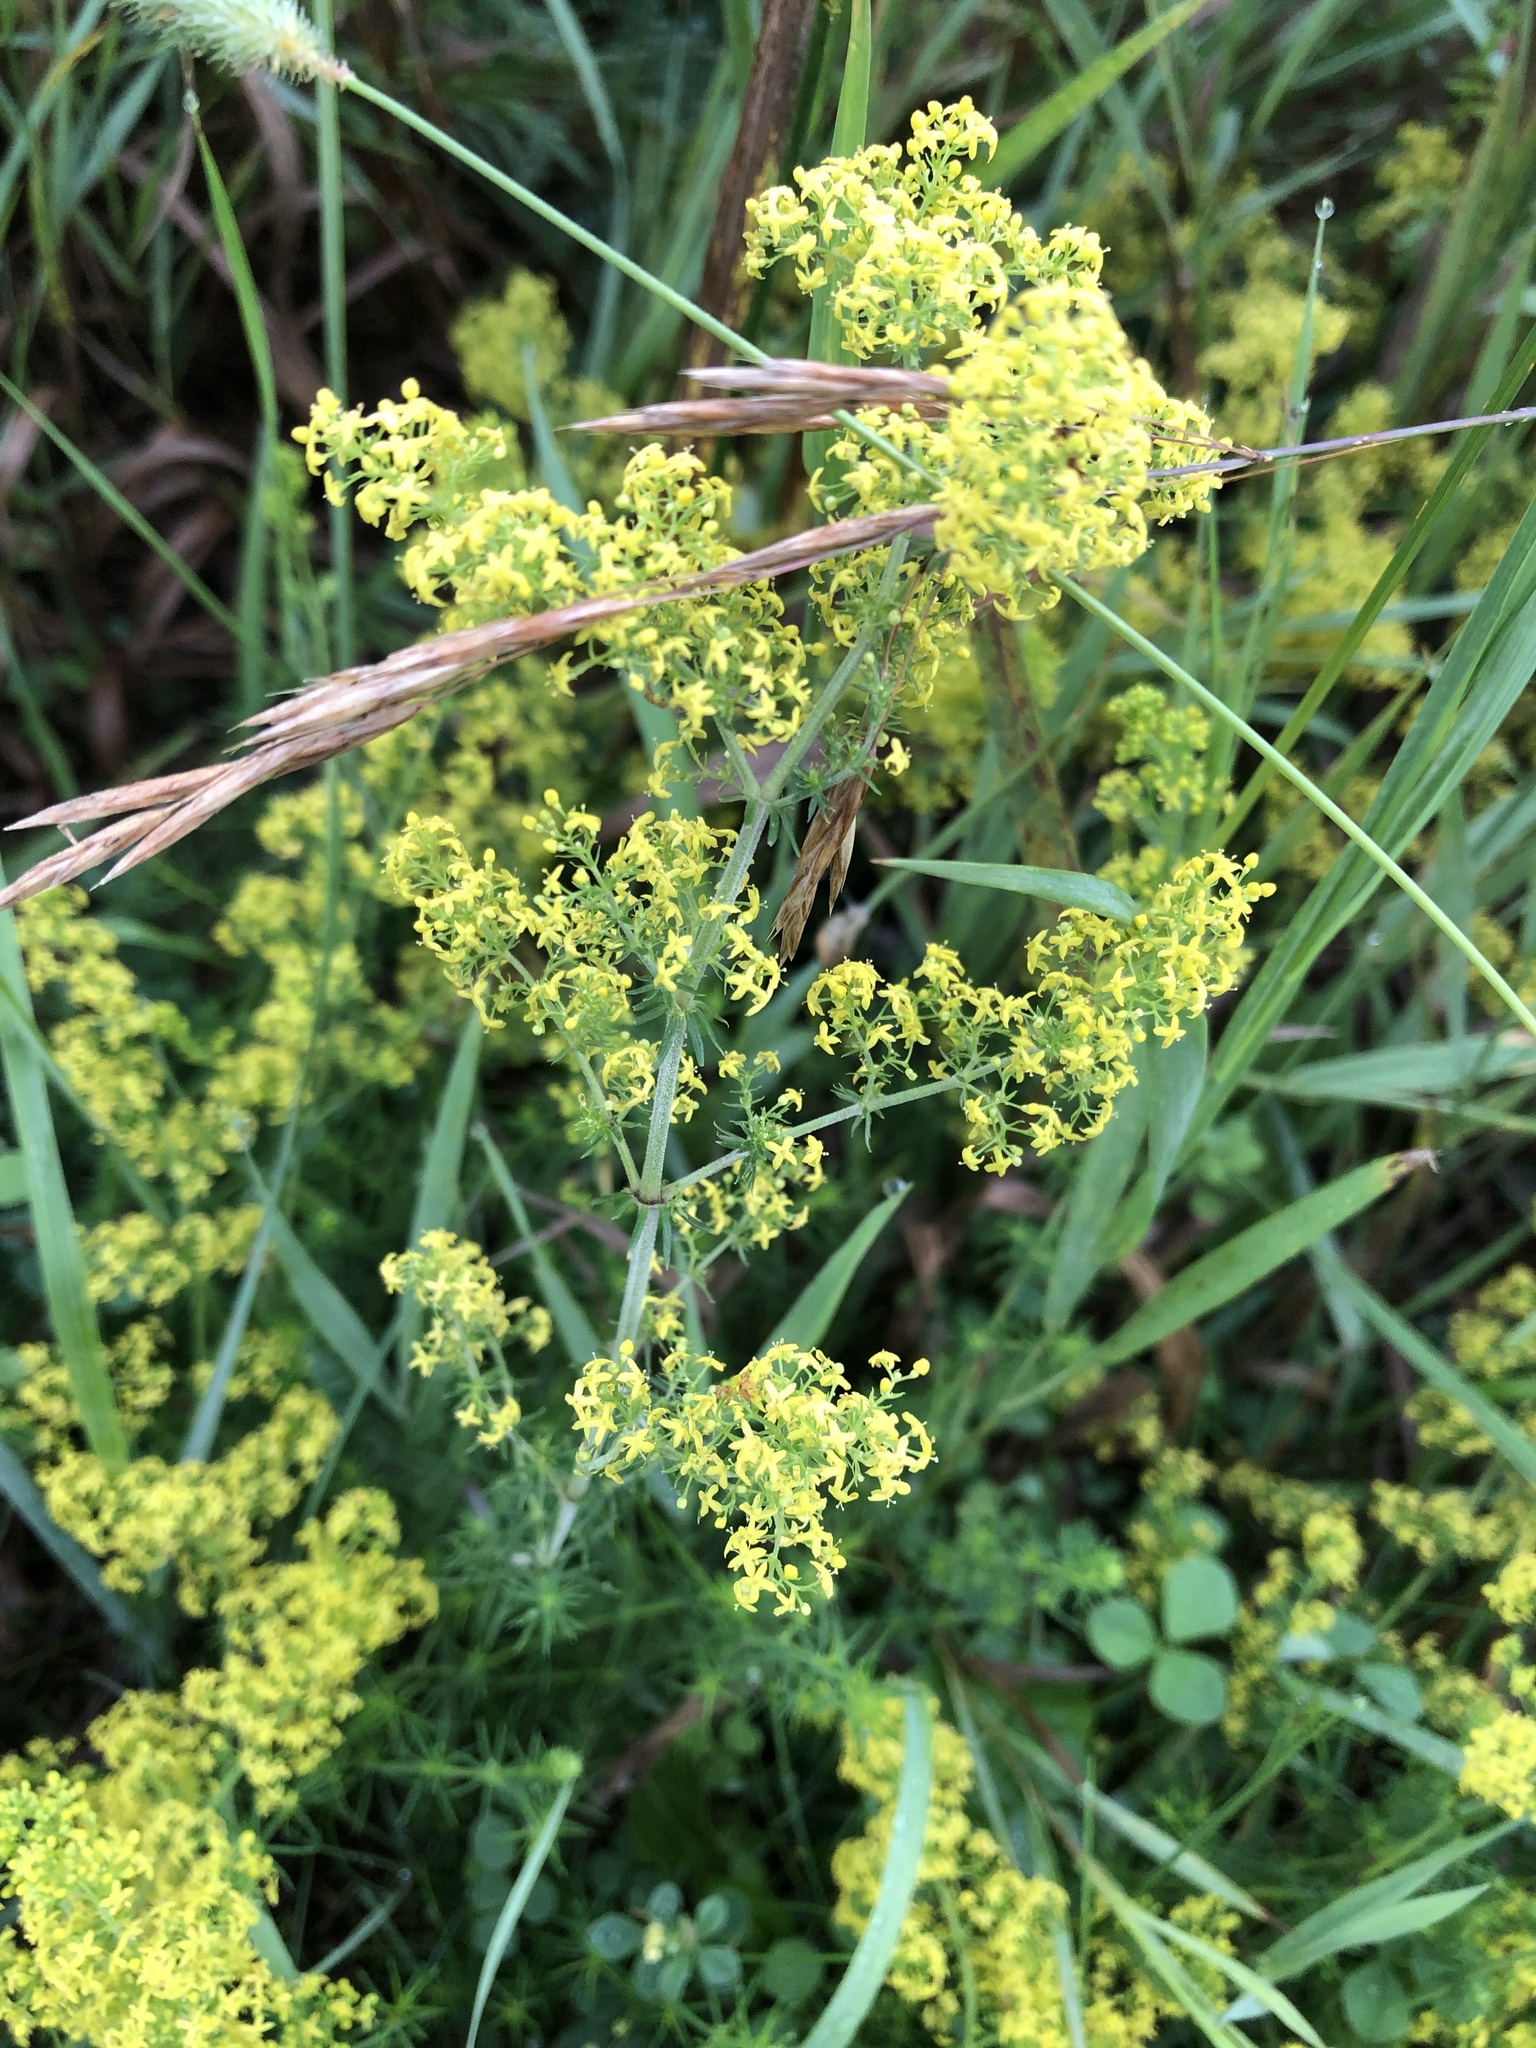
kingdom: Plantae
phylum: Tracheophyta
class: Magnoliopsida
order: Gentianales
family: Rubiaceae
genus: Galium
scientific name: Galium verum
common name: Lady's bedstraw
